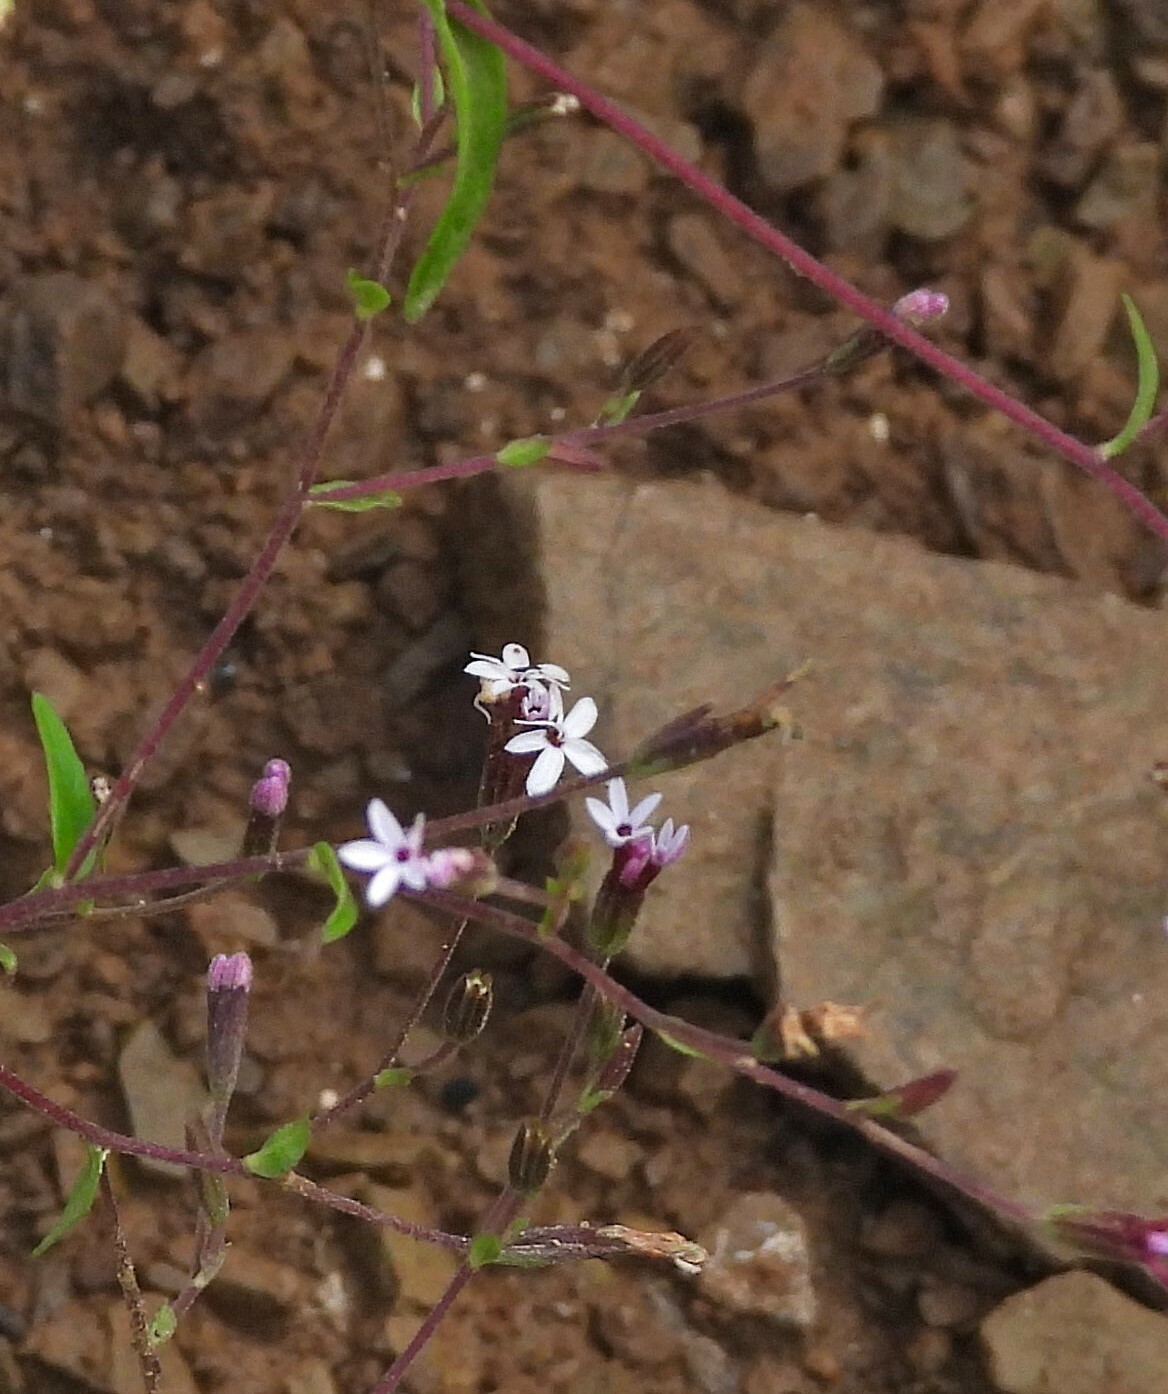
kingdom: Plantae
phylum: Tracheophyta
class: Magnoliopsida
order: Asterales
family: Asteraceae
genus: Stevia
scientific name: Stevia yaconensis
